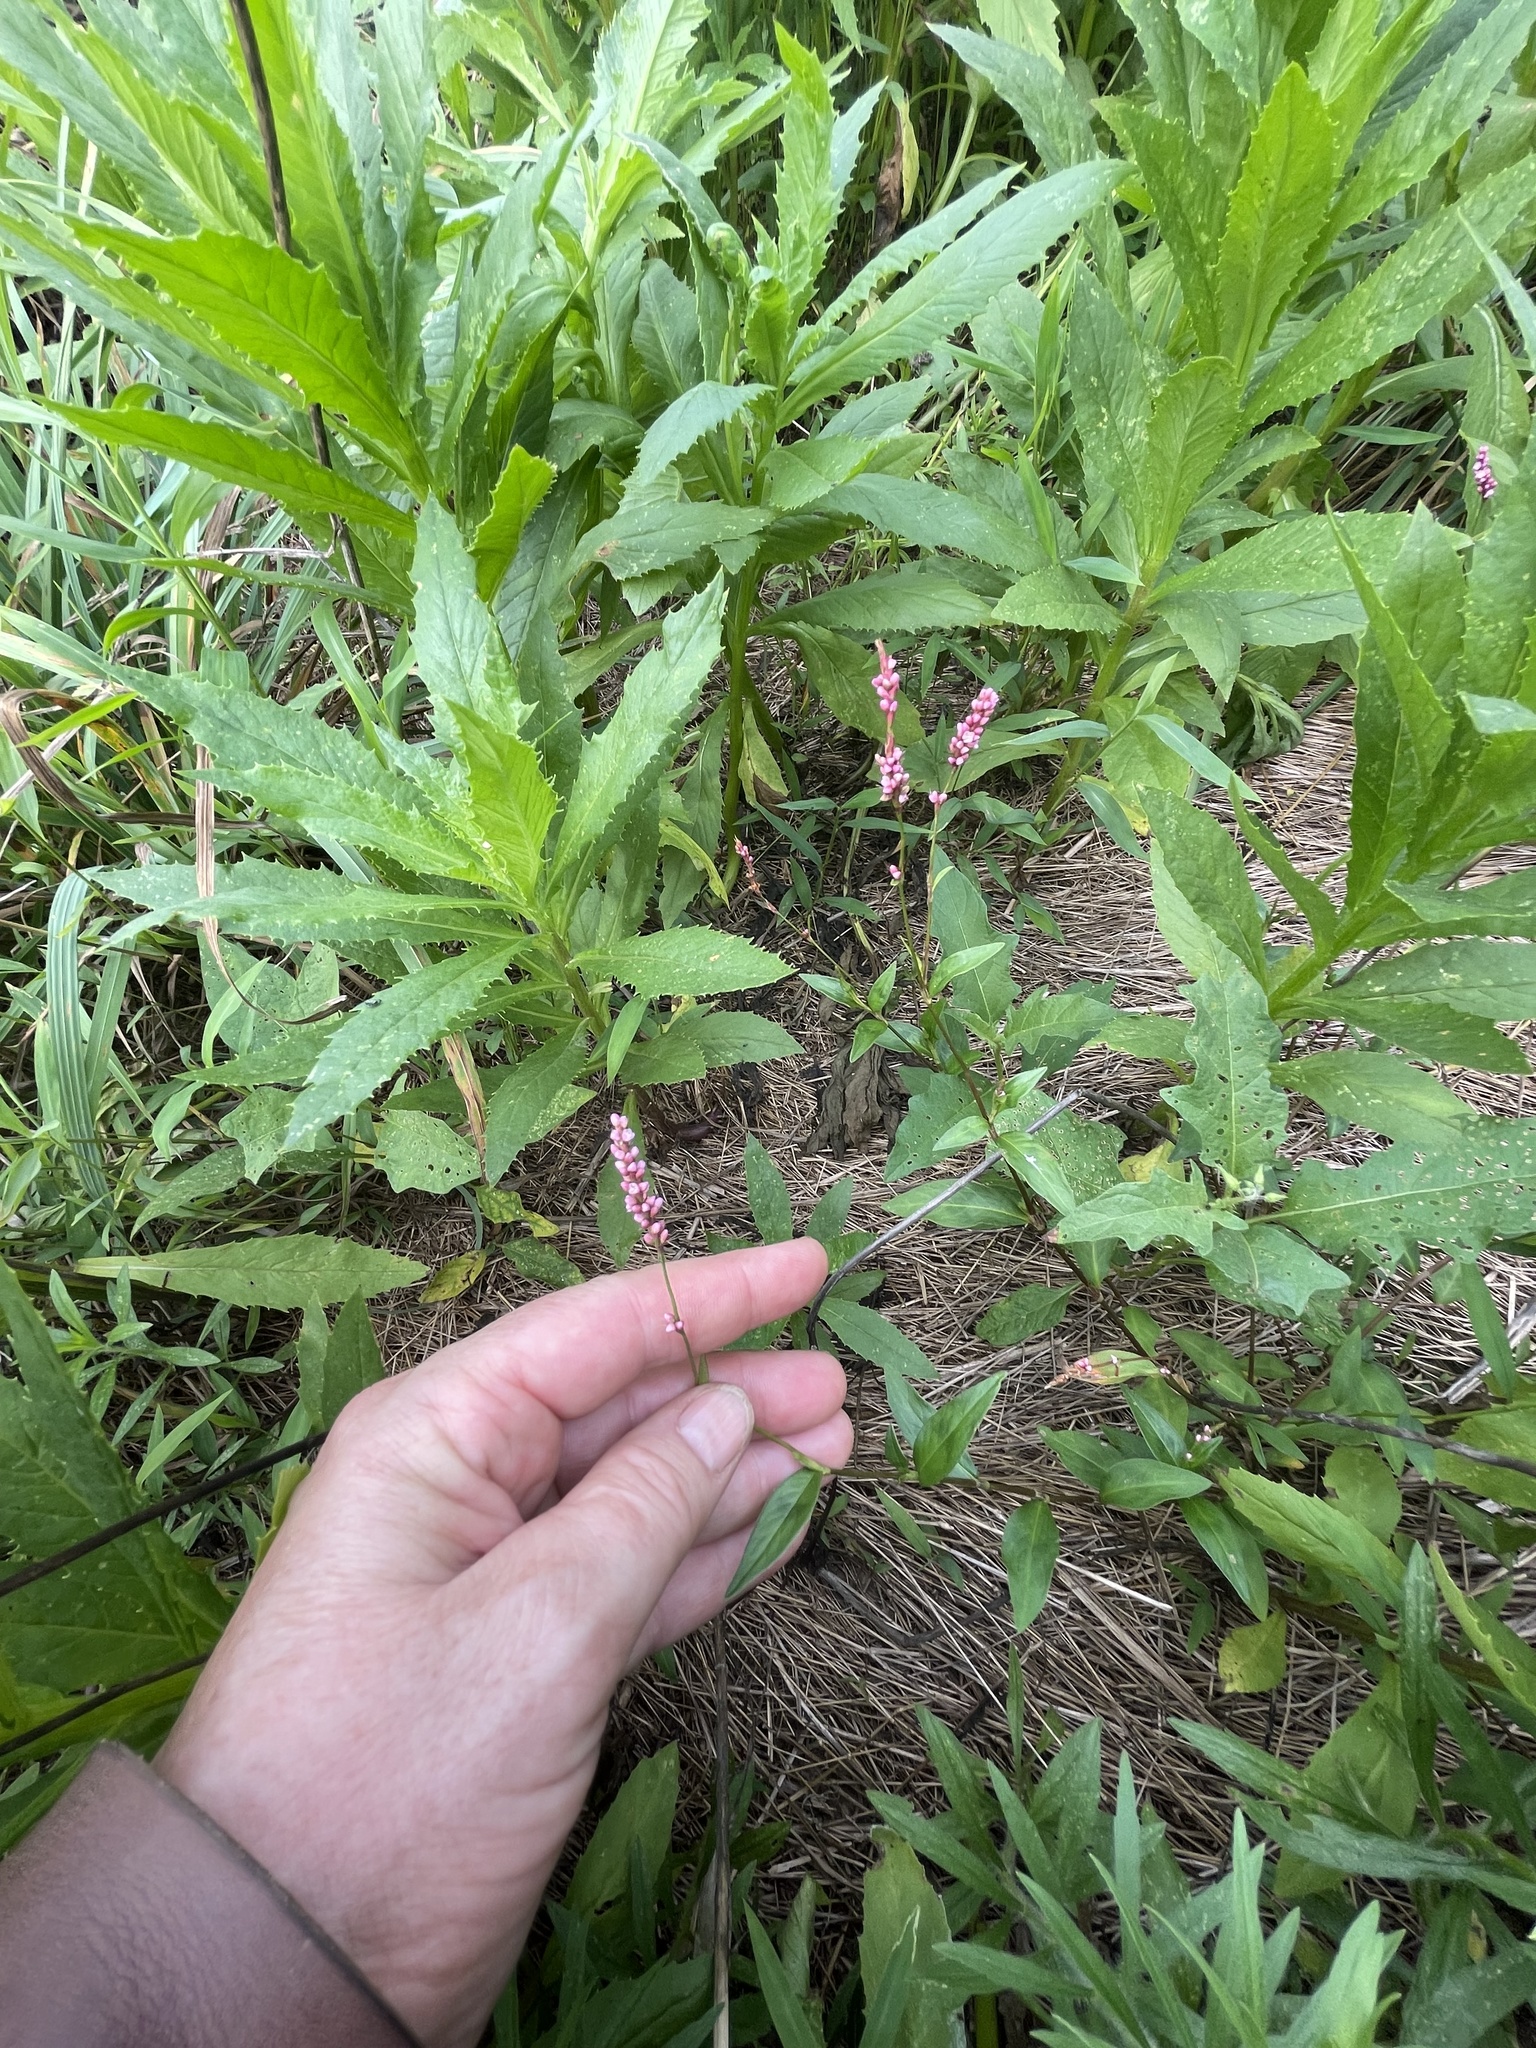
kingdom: Plantae
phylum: Tracheophyta
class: Magnoliopsida
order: Caryophyllales
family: Polygonaceae
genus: Persicaria
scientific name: Persicaria longiseta
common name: Bristly lady's-thumb
